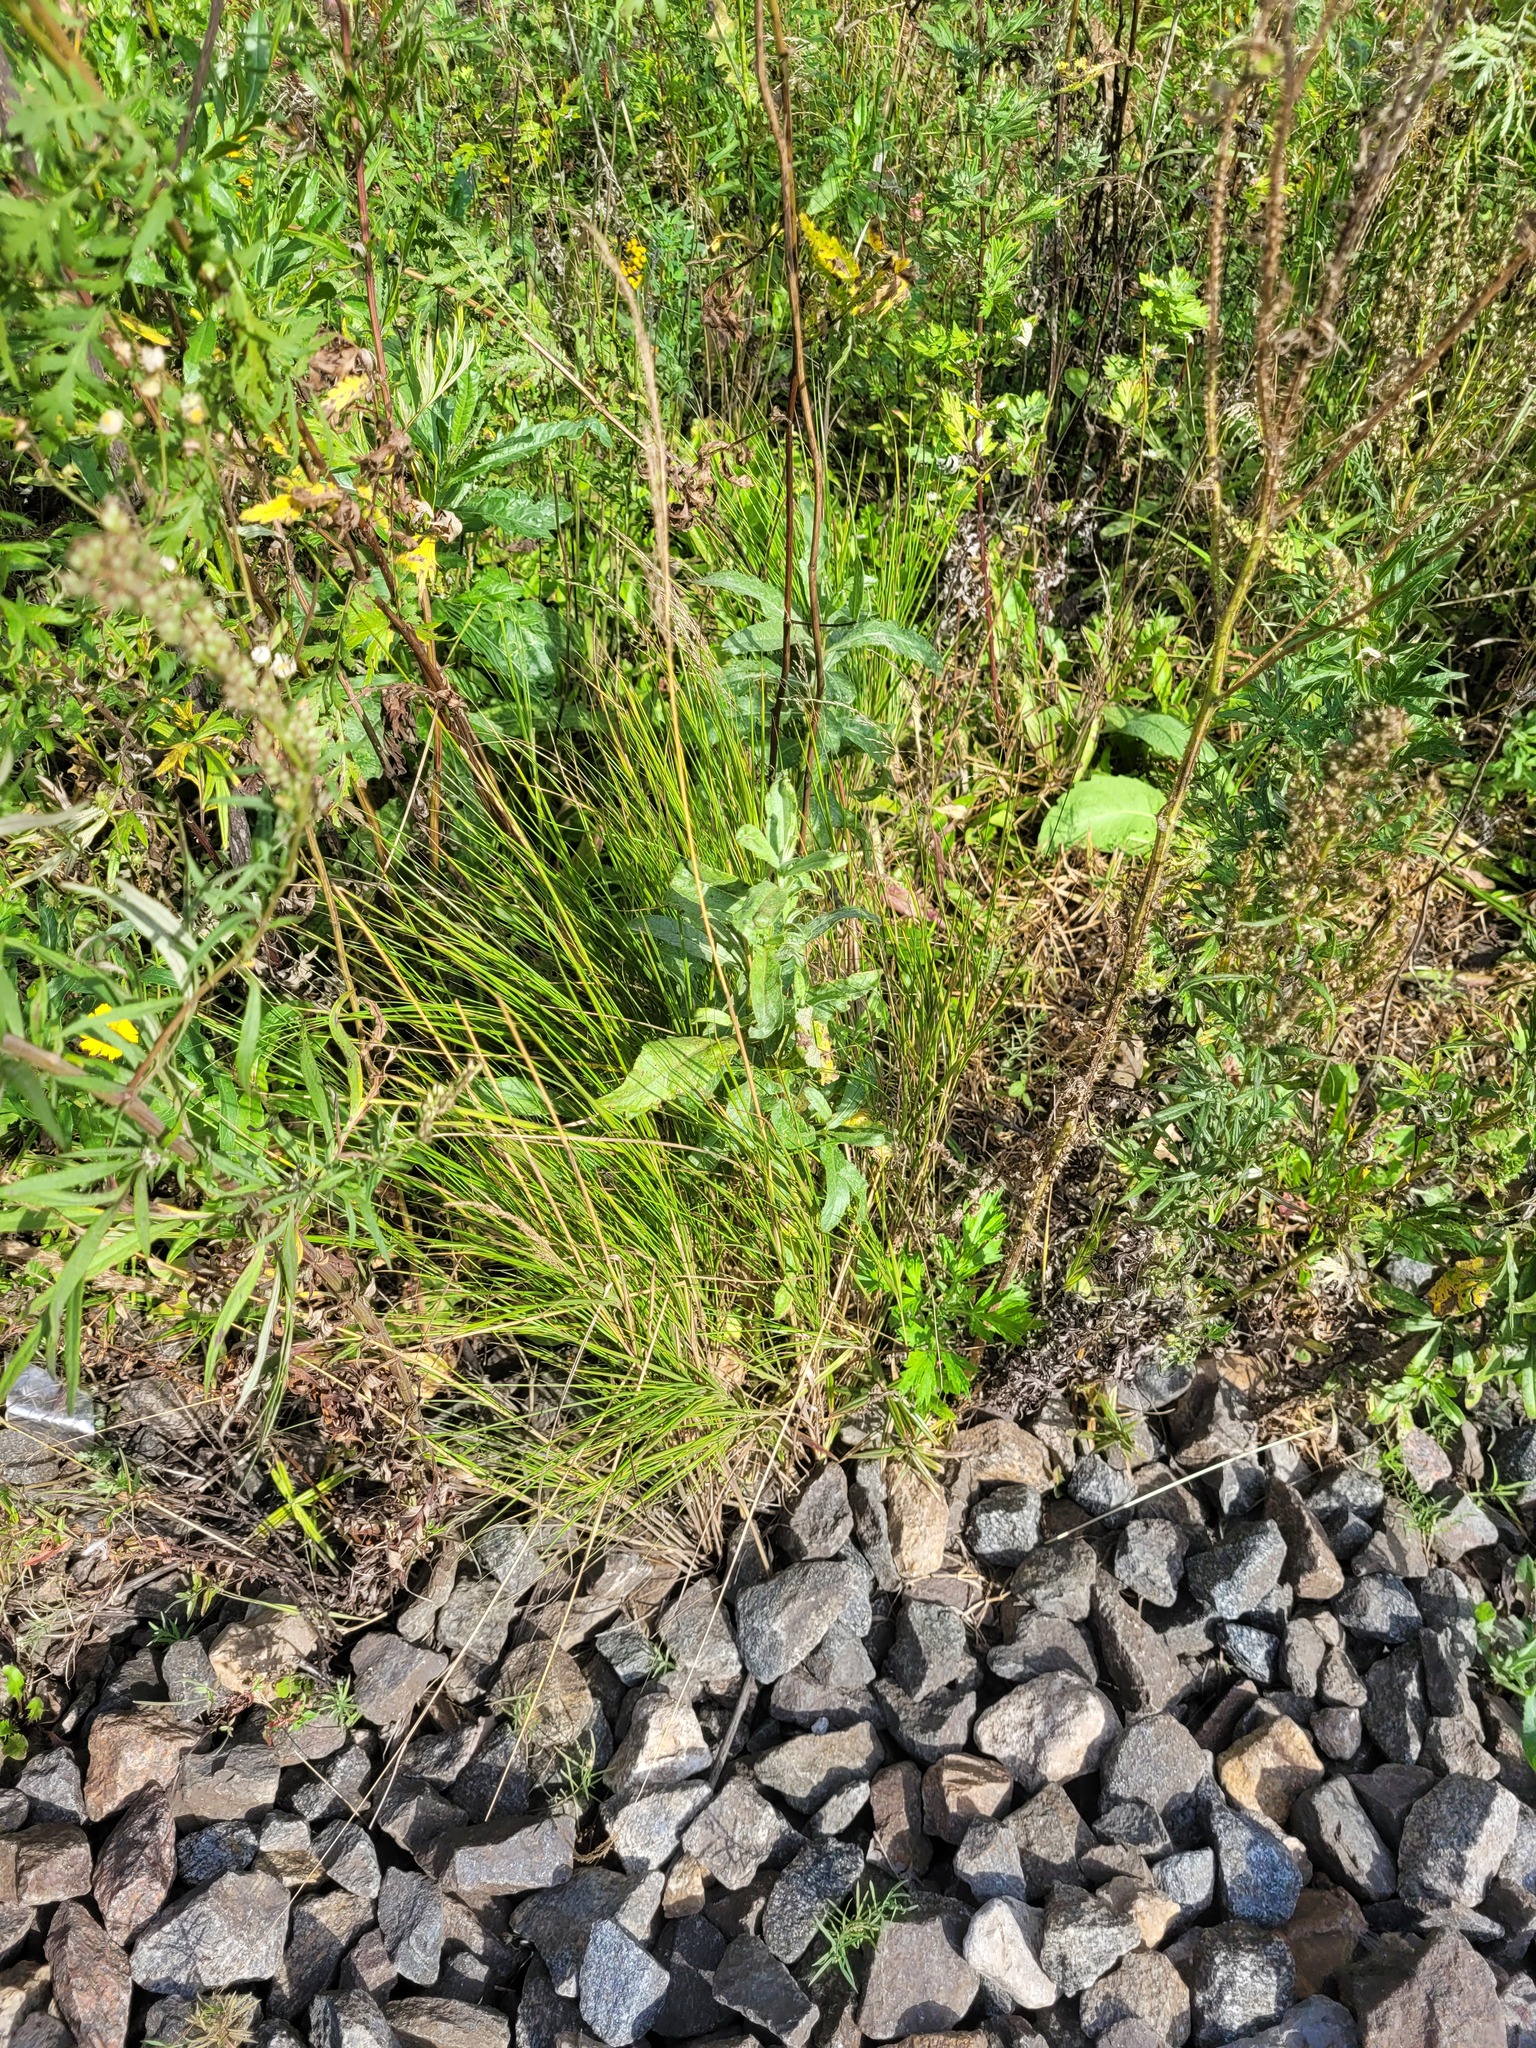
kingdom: Plantae
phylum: Tracheophyta
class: Liliopsida
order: Poales
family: Poaceae
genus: Calamagrostis
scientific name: Calamagrostis arundinacea
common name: Metskastik
